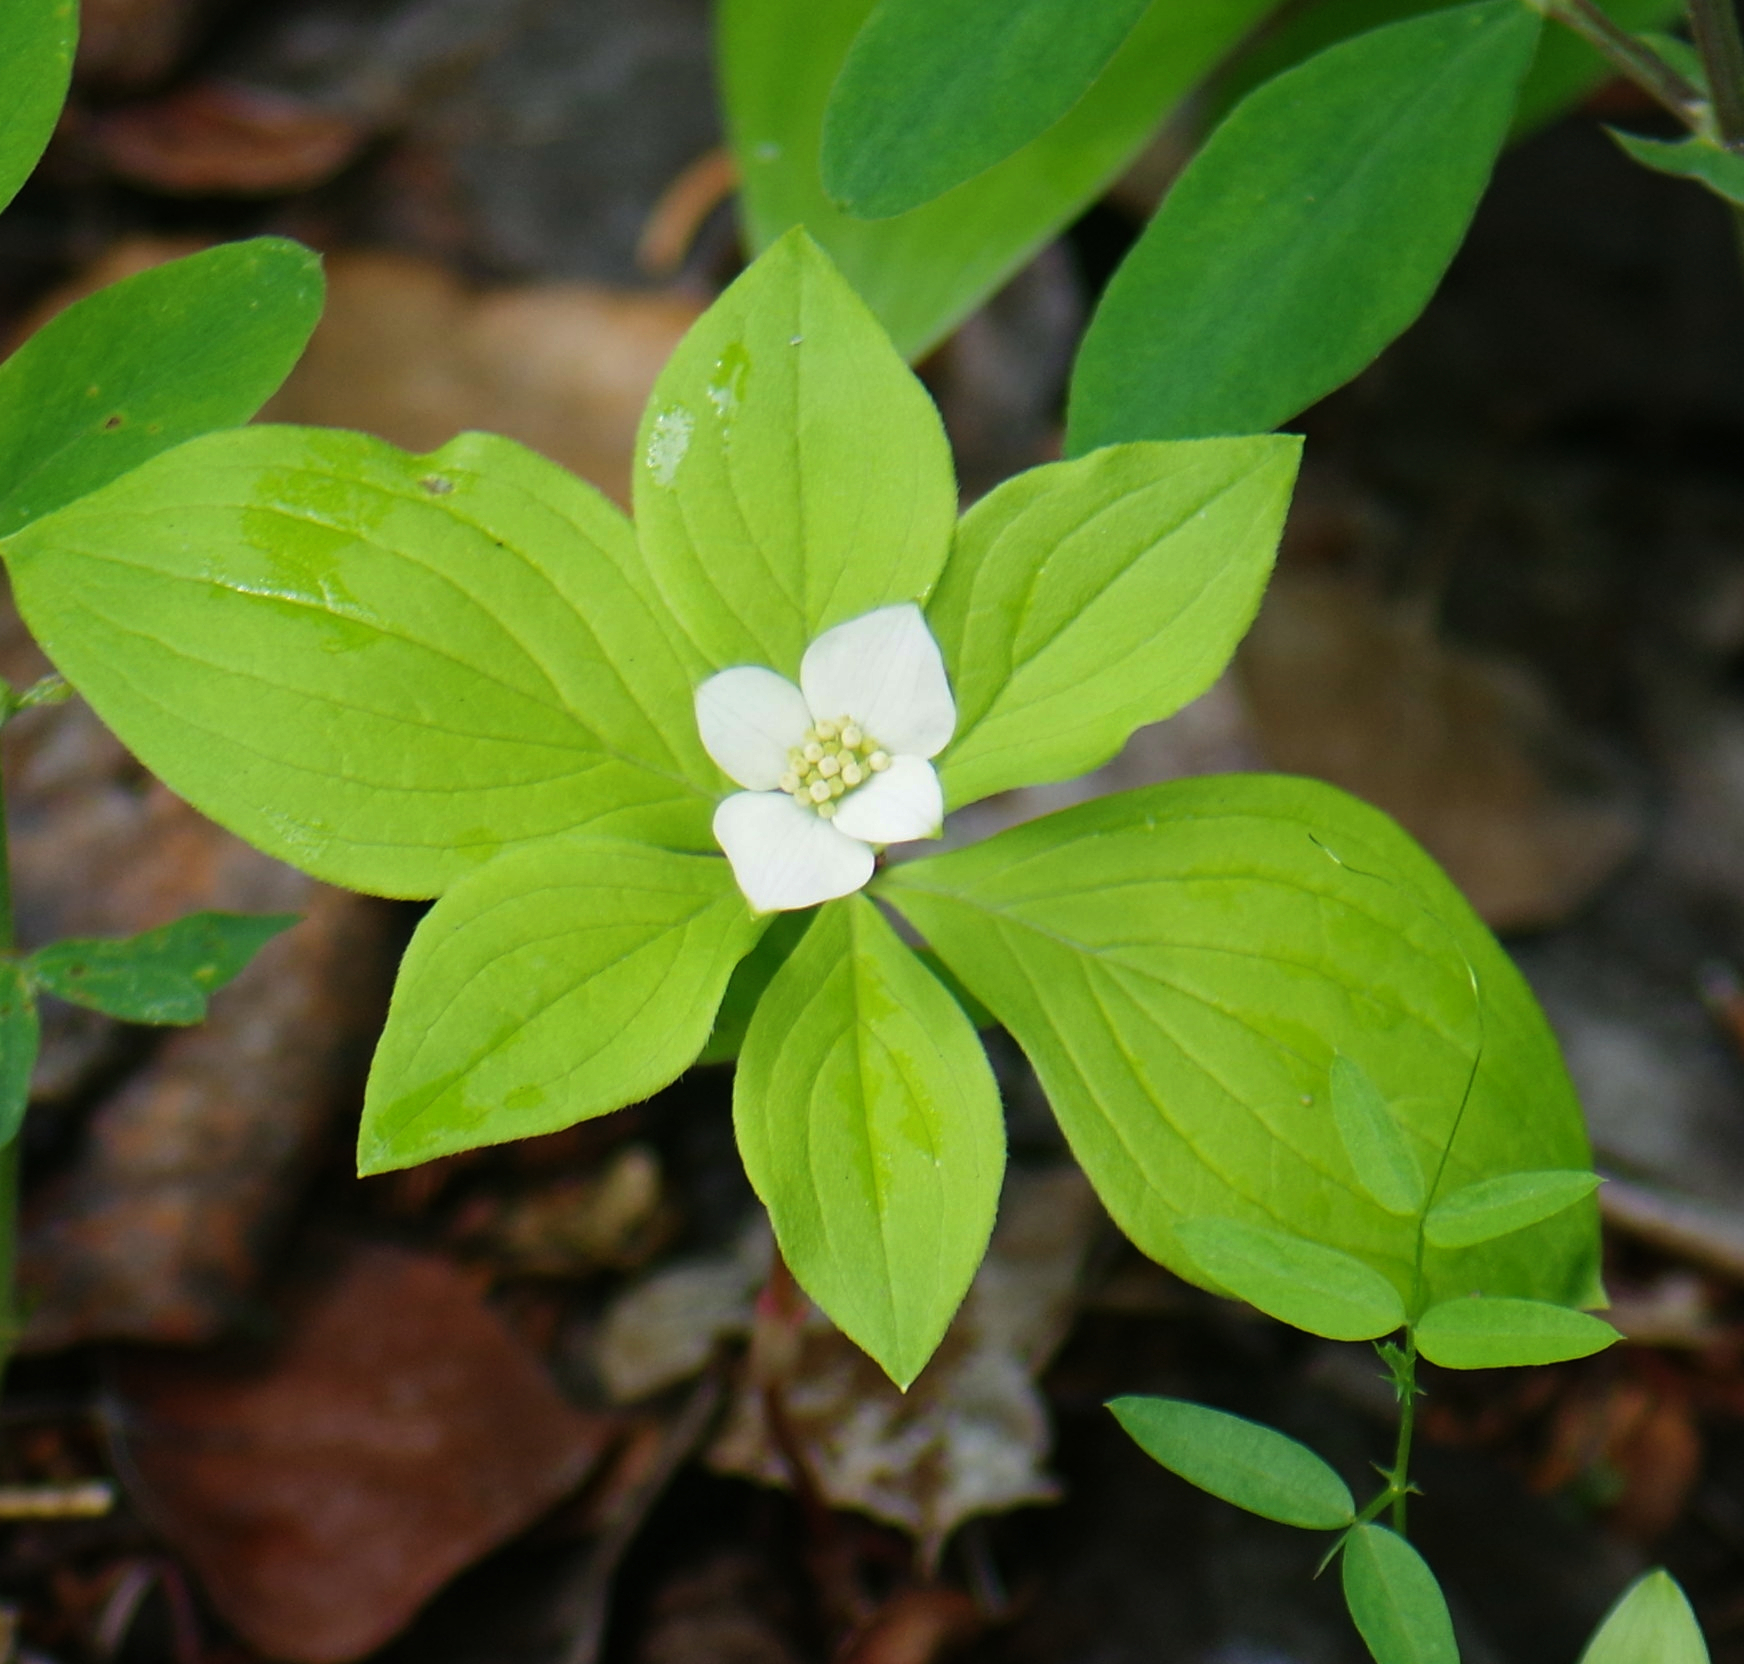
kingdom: Plantae
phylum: Tracheophyta
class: Magnoliopsida
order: Cornales
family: Cornaceae
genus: Cornus
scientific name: Cornus canadensis
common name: Creeping dogwood
